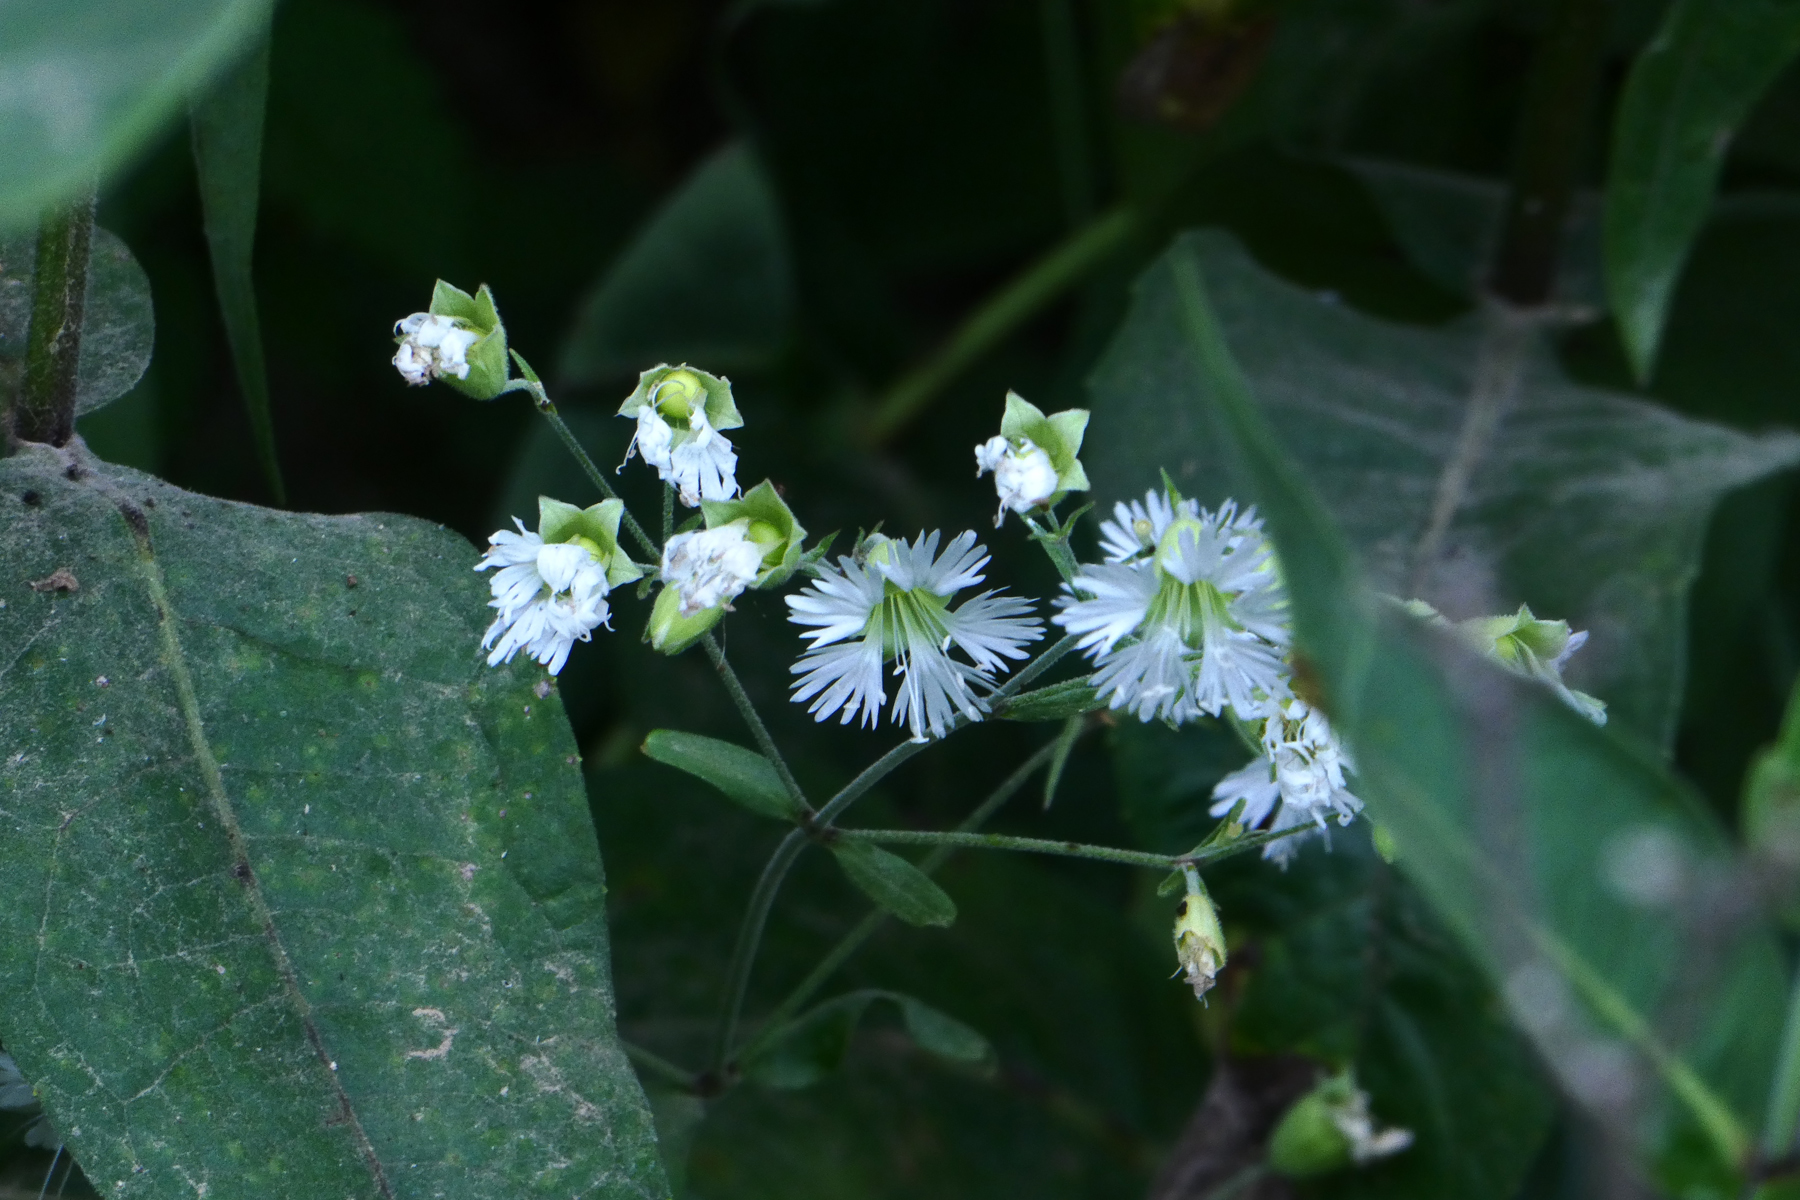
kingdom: Plantae
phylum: Tracheophyta
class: Magnoliopsida
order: Caryophyllales
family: Caryophyllaceae
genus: Silene
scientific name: Silene stellata
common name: Starry campion
